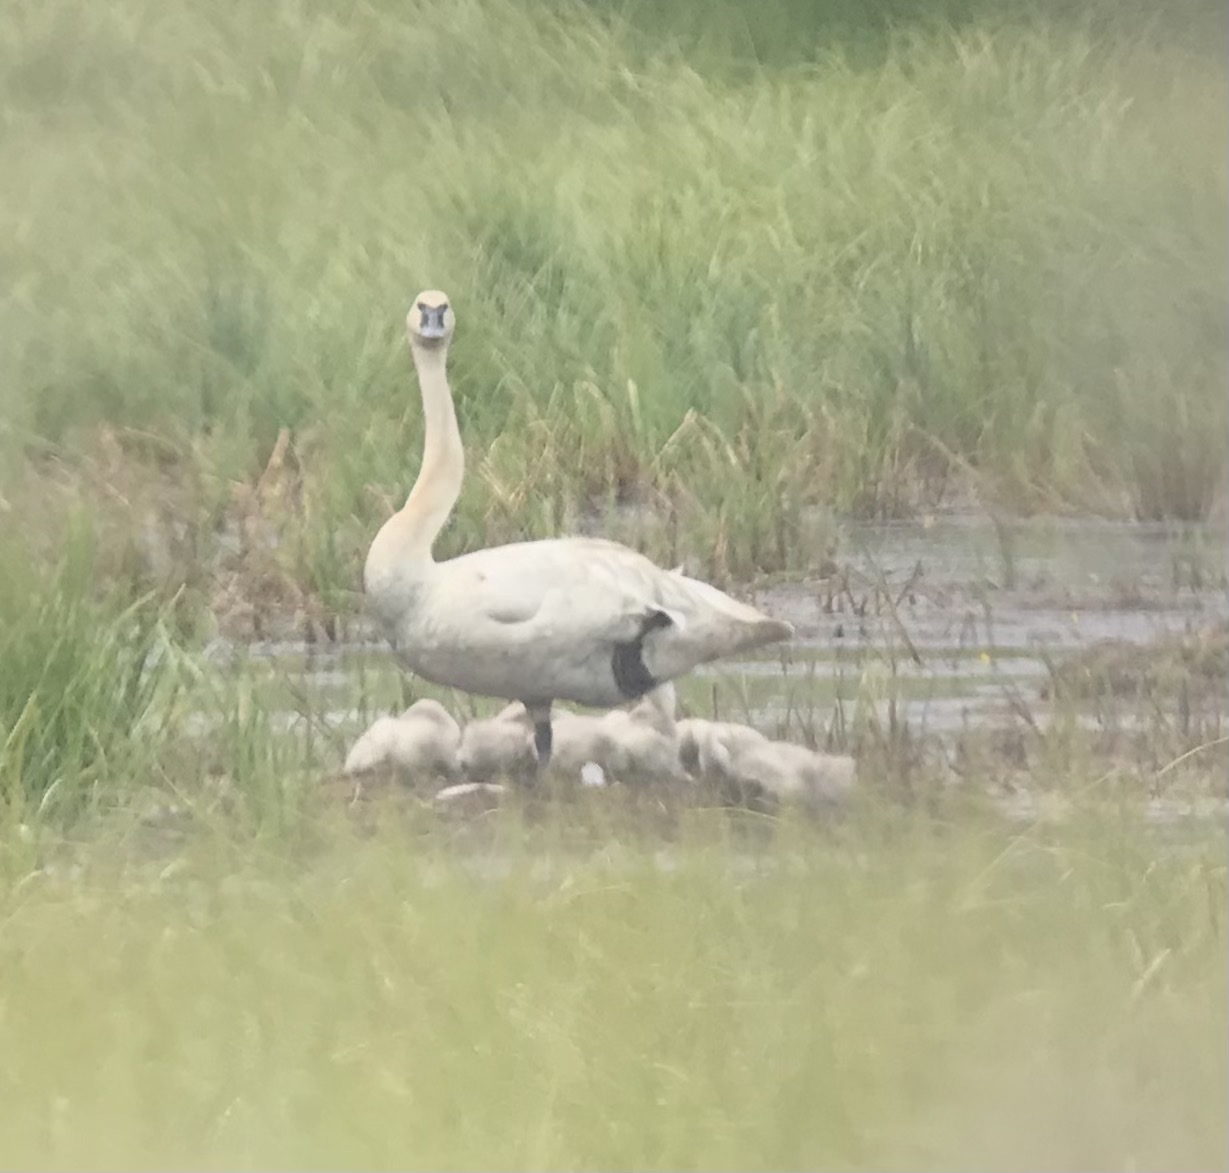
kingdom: Animalia
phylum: Chordata
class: Aves
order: Anseriformes
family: Anatidae
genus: Cygnus
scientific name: Cygnus buccinator
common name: Trumpeter swan
